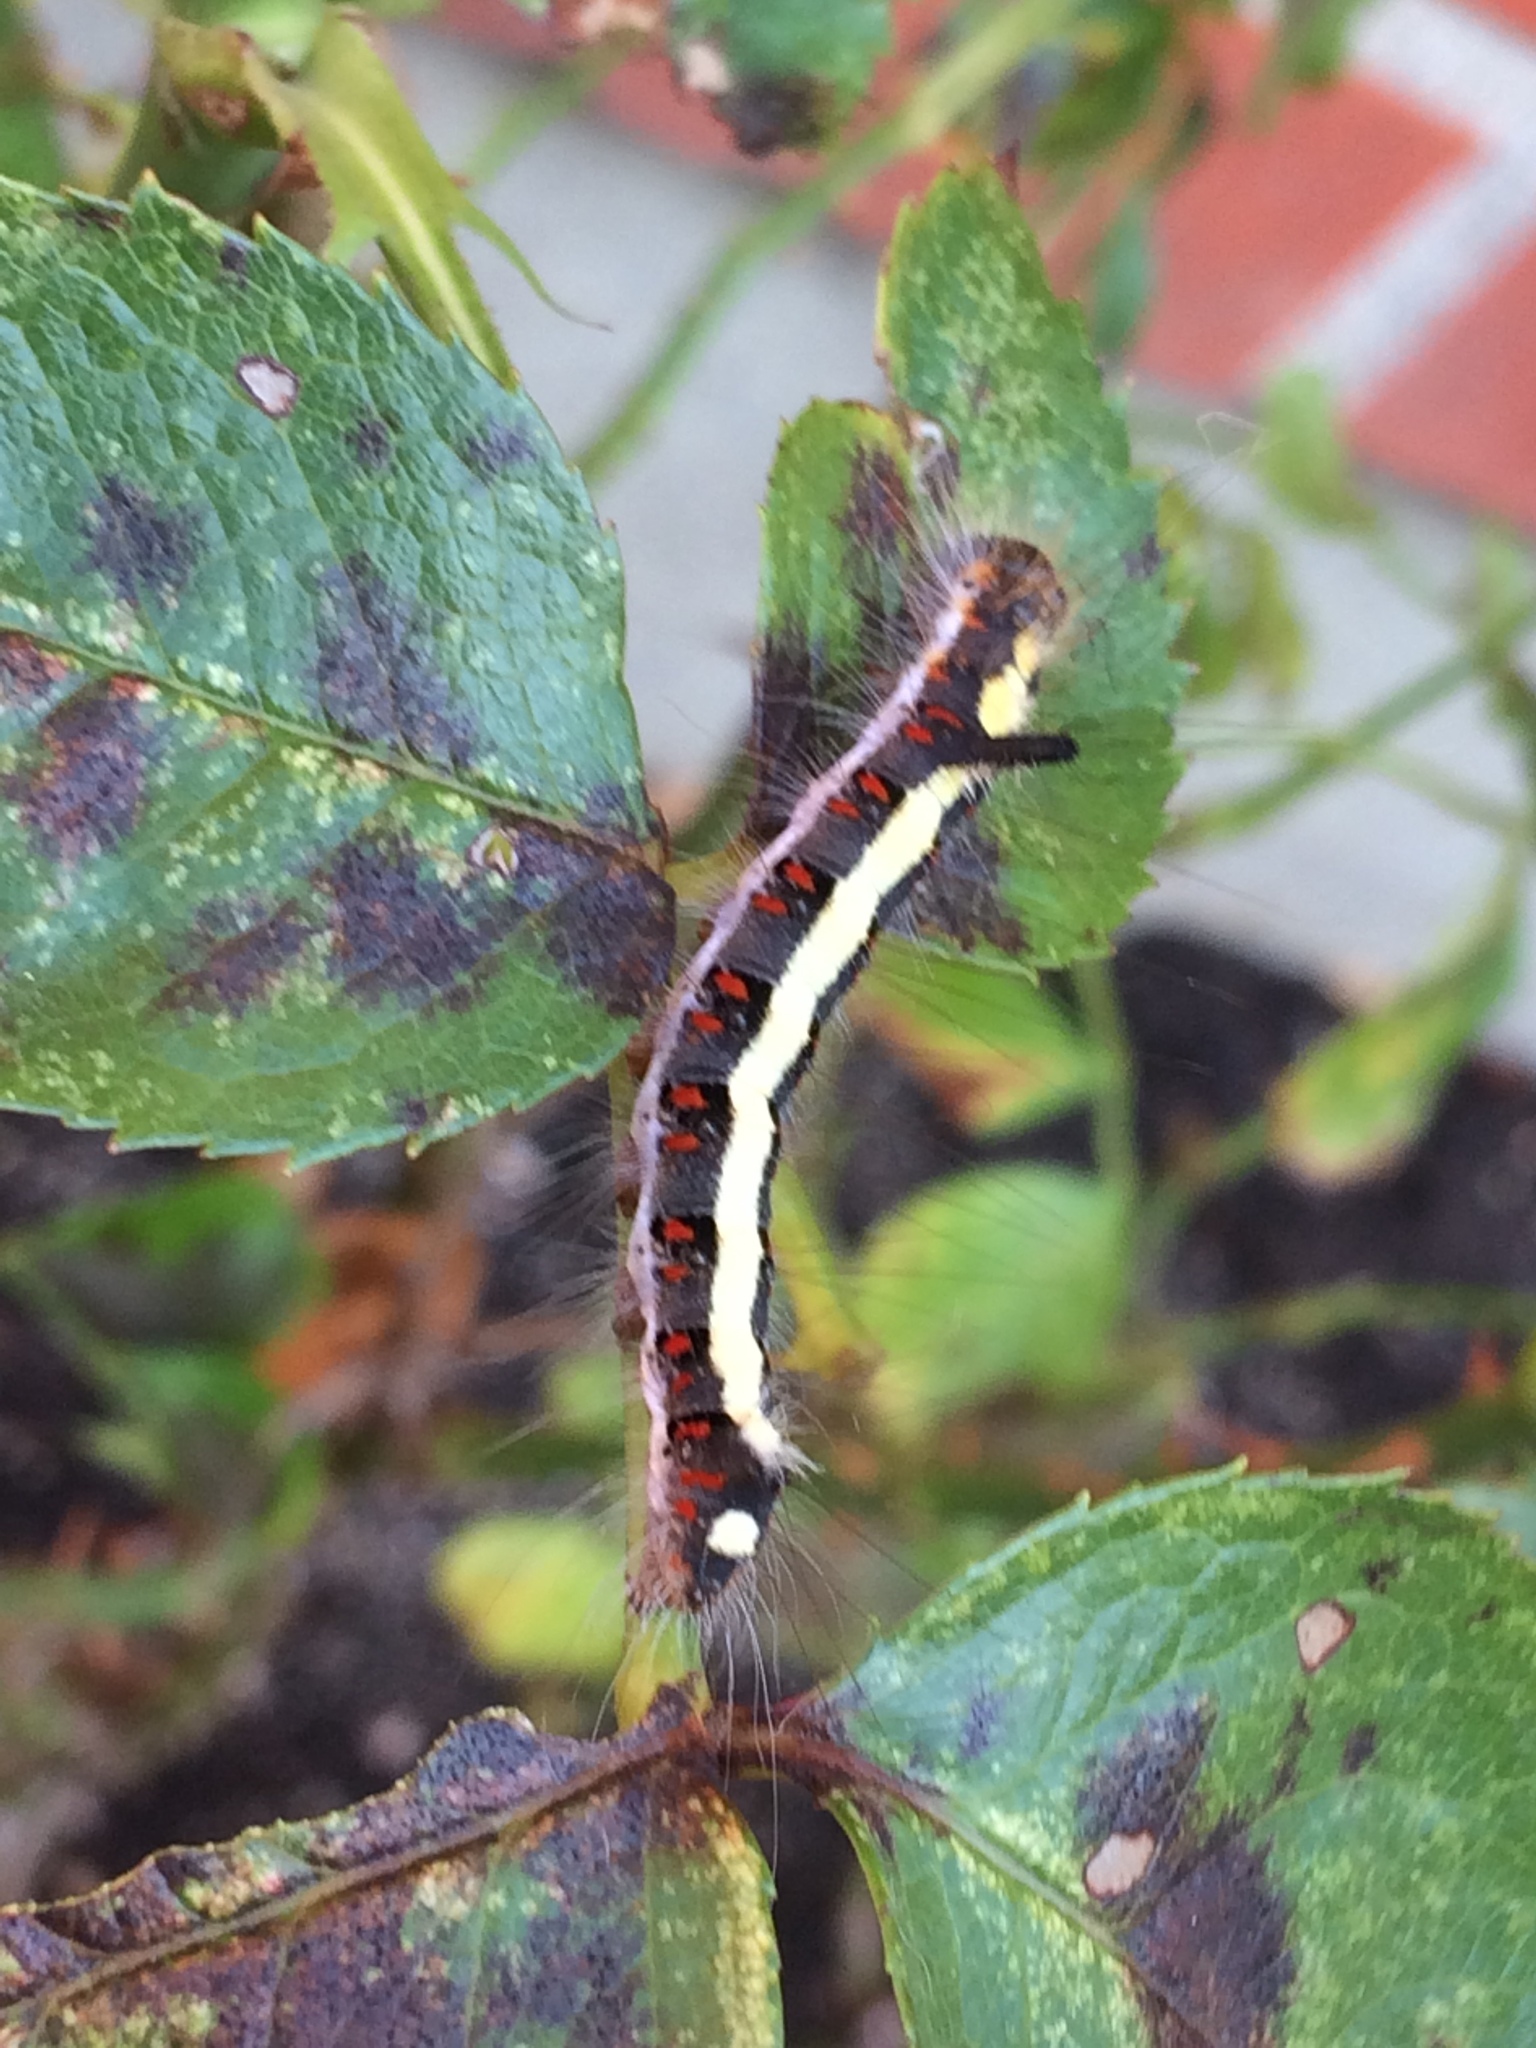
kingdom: Animalia
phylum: Arthropoda
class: Insecta
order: Lepidoptera
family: Noctuidae
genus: Acronicta
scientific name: Acronicta psi
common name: Grey dagger
